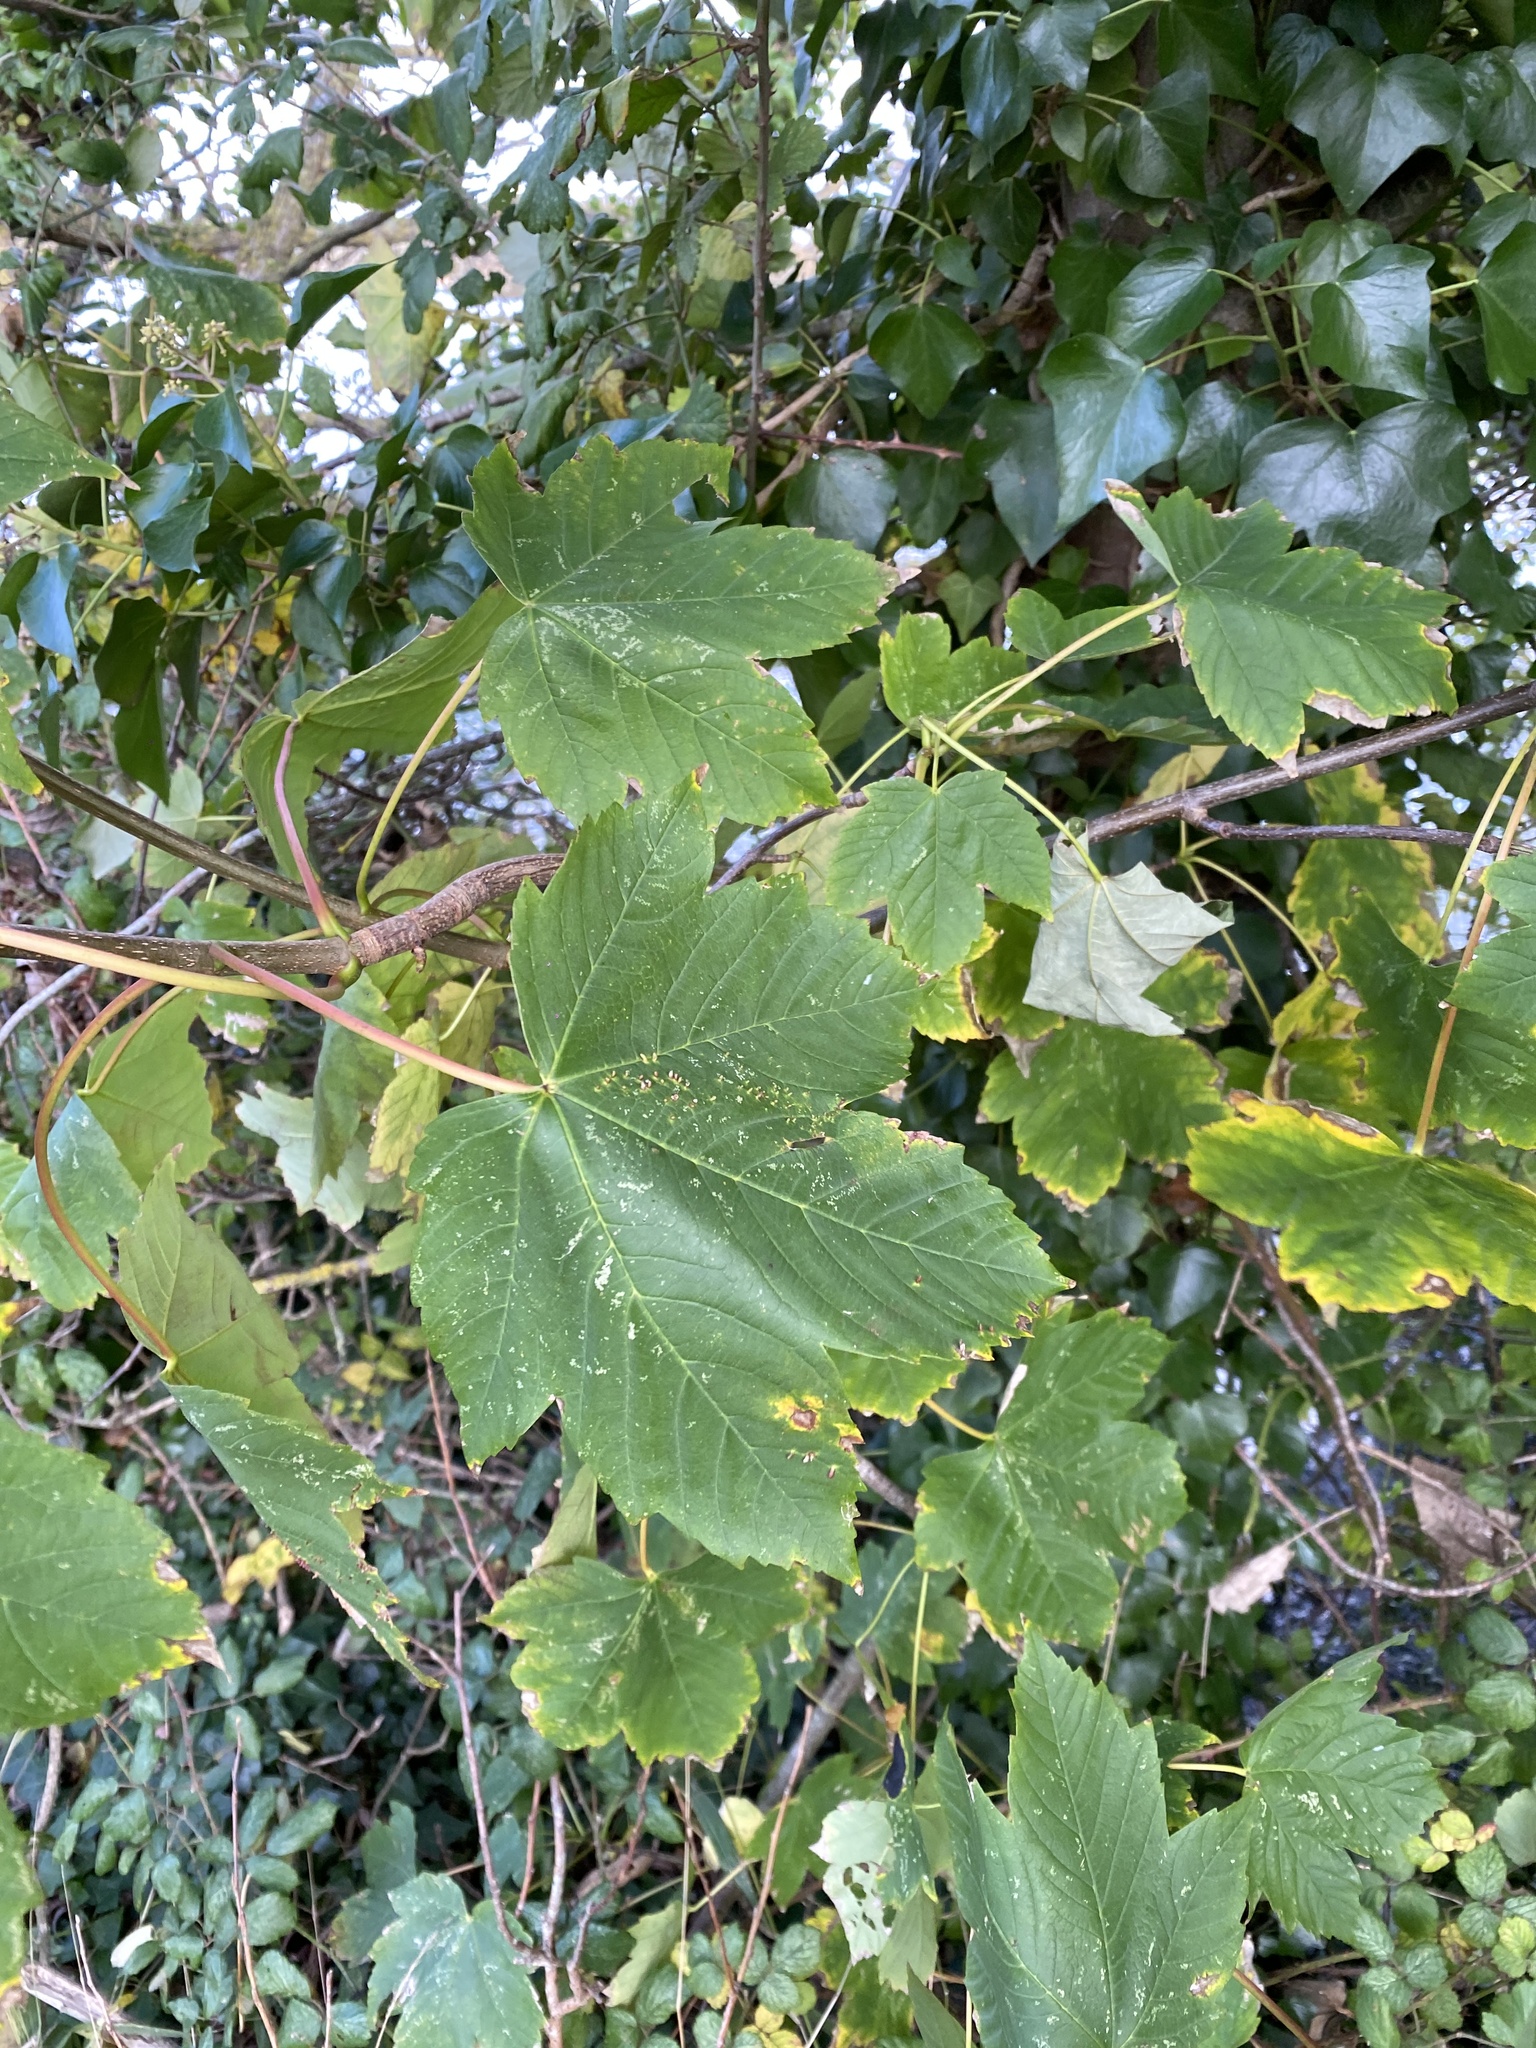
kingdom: Plantae
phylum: Tracheophyta
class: Magnoliopsida
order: Sapindales
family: Sapindaceae
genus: Acer
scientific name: Acer pseudoplatanus
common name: Sycamore
